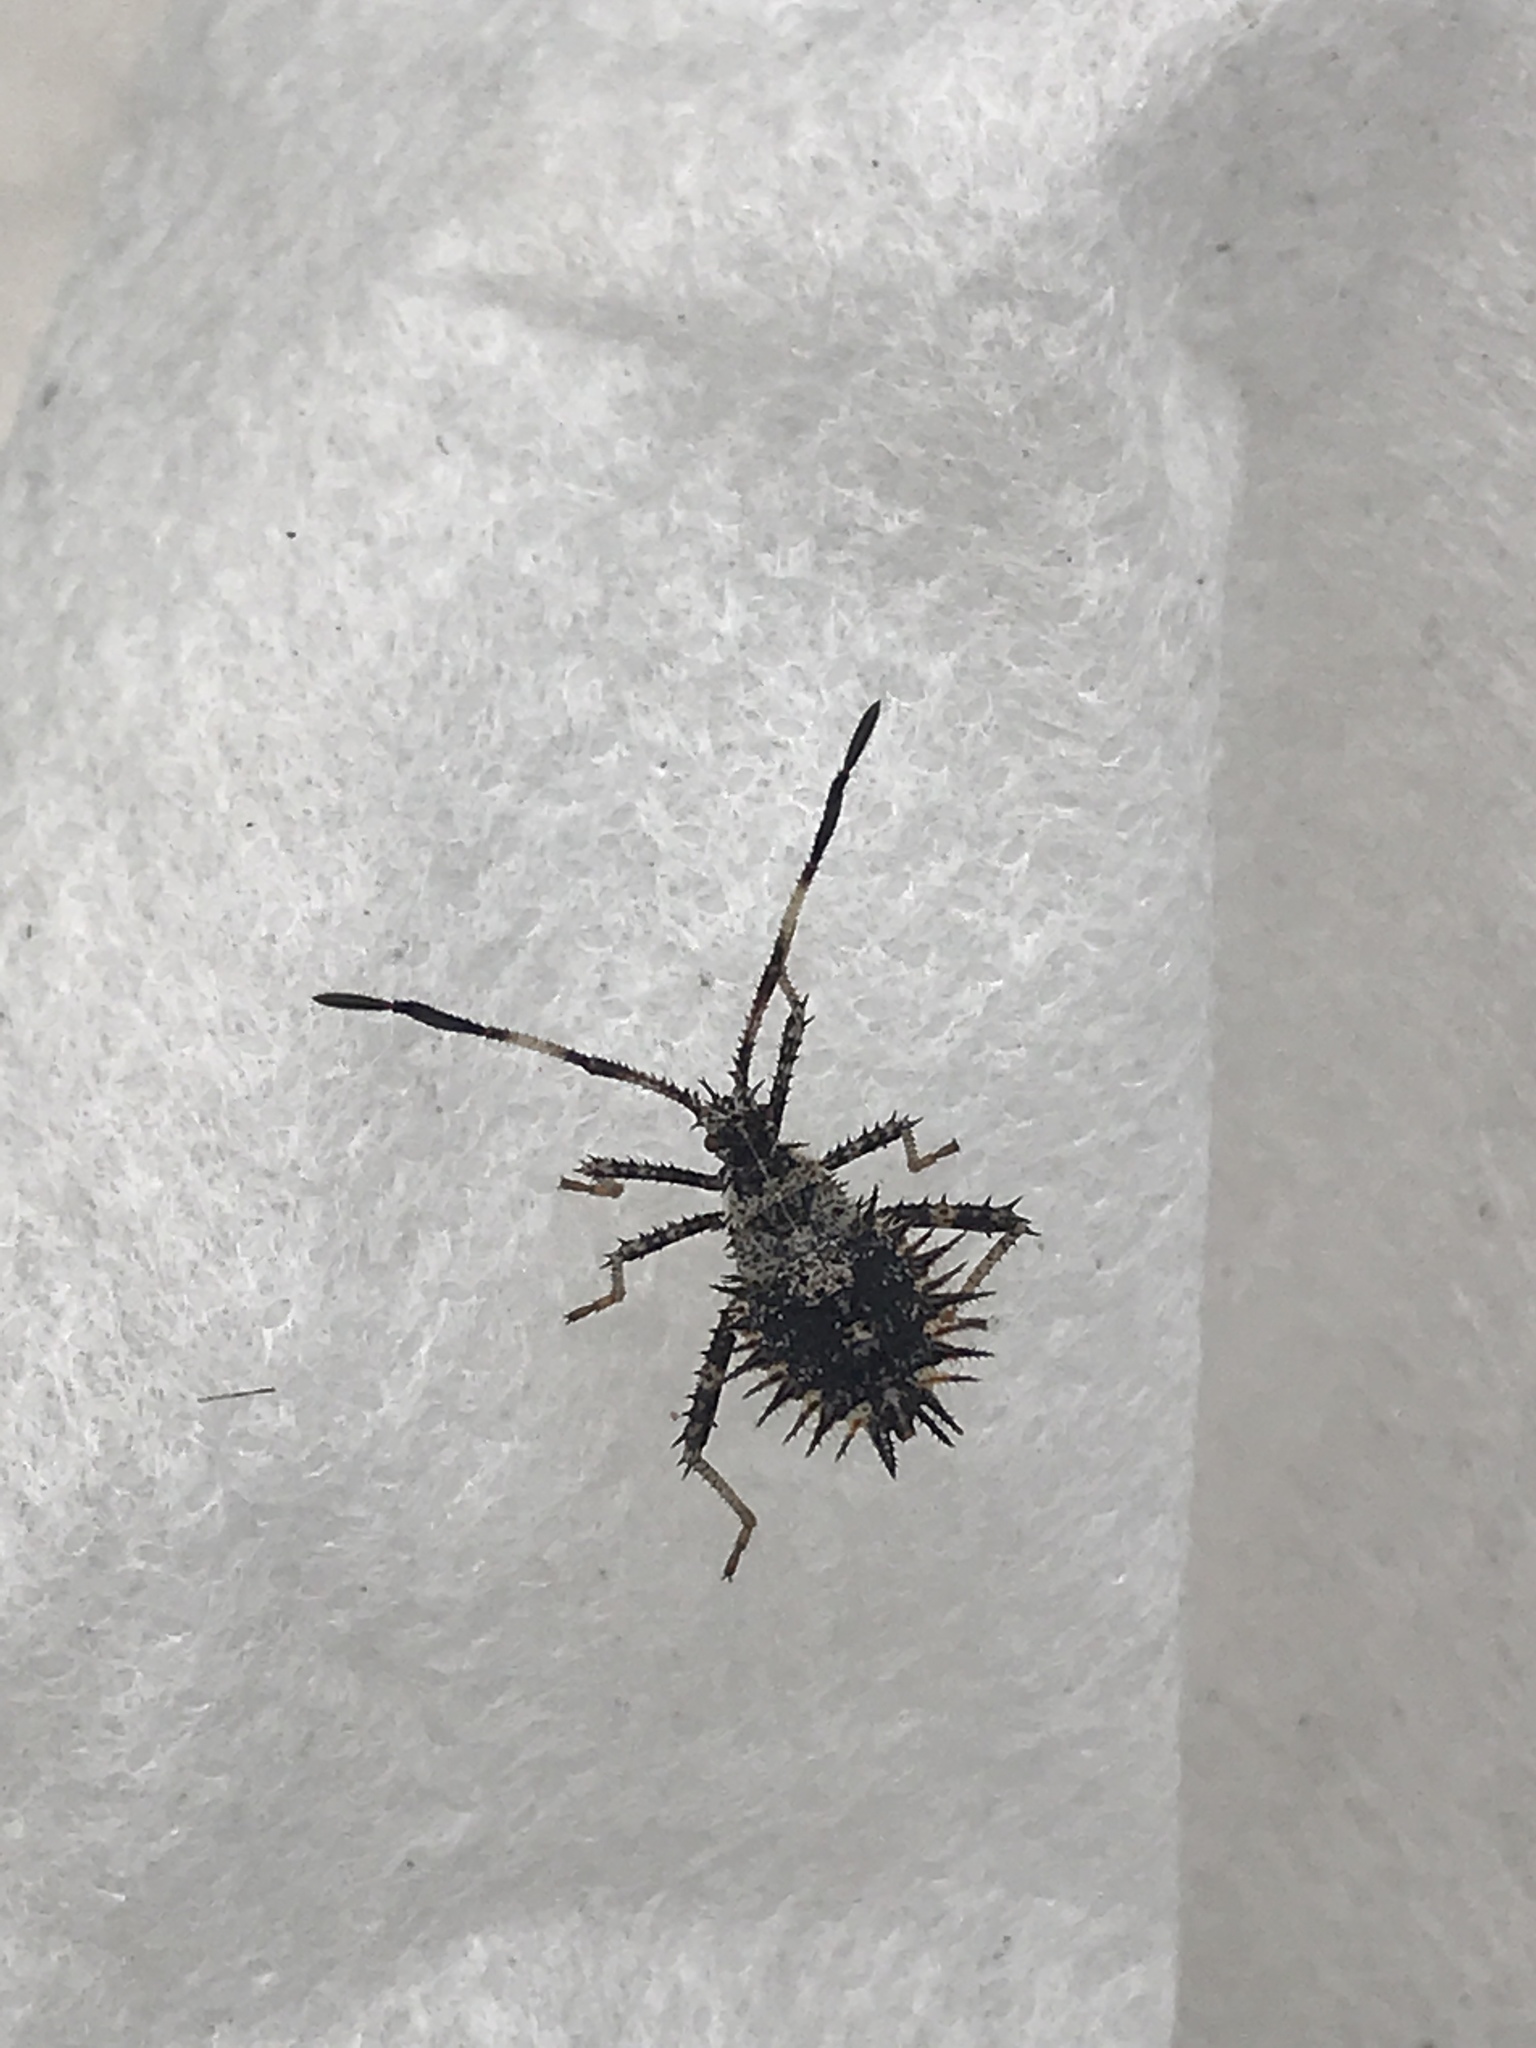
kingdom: Animalia
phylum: Arthropoda
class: Insecta
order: Hemiptera
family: Coreidae
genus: Euthochtha
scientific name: Euthochtha galeator
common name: Helmeted squash bug
